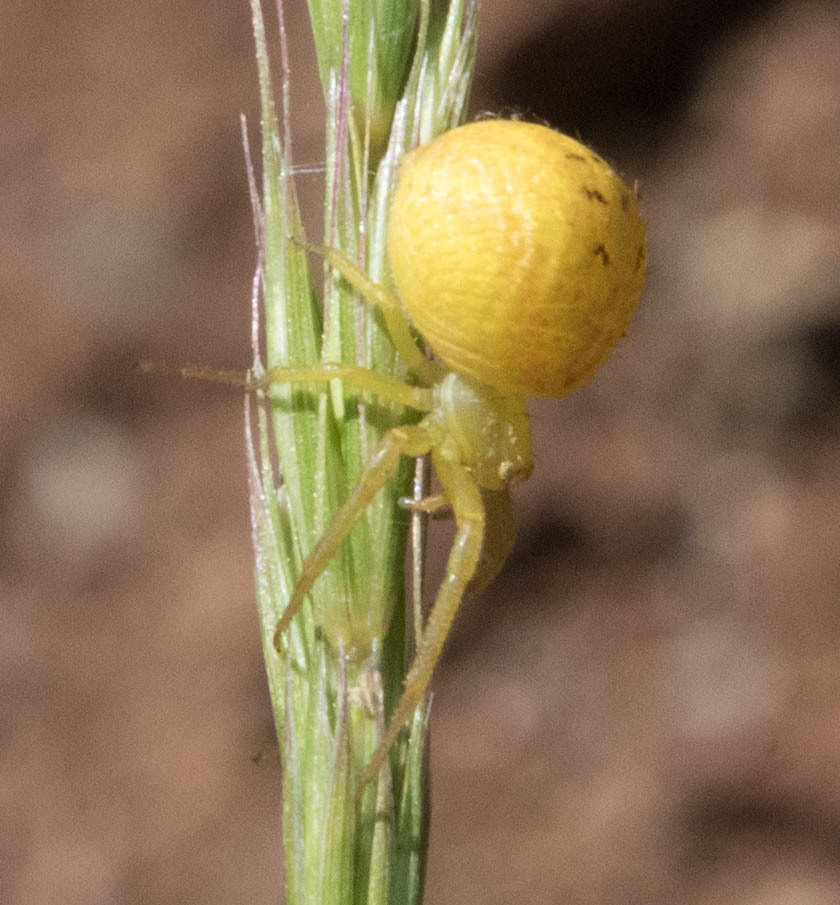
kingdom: Animalia
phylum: Arthropoda
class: Arachnida
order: Araneae
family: Thomisidae
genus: Misumena
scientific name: Misumena vatia
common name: Goldenrod crab spider
